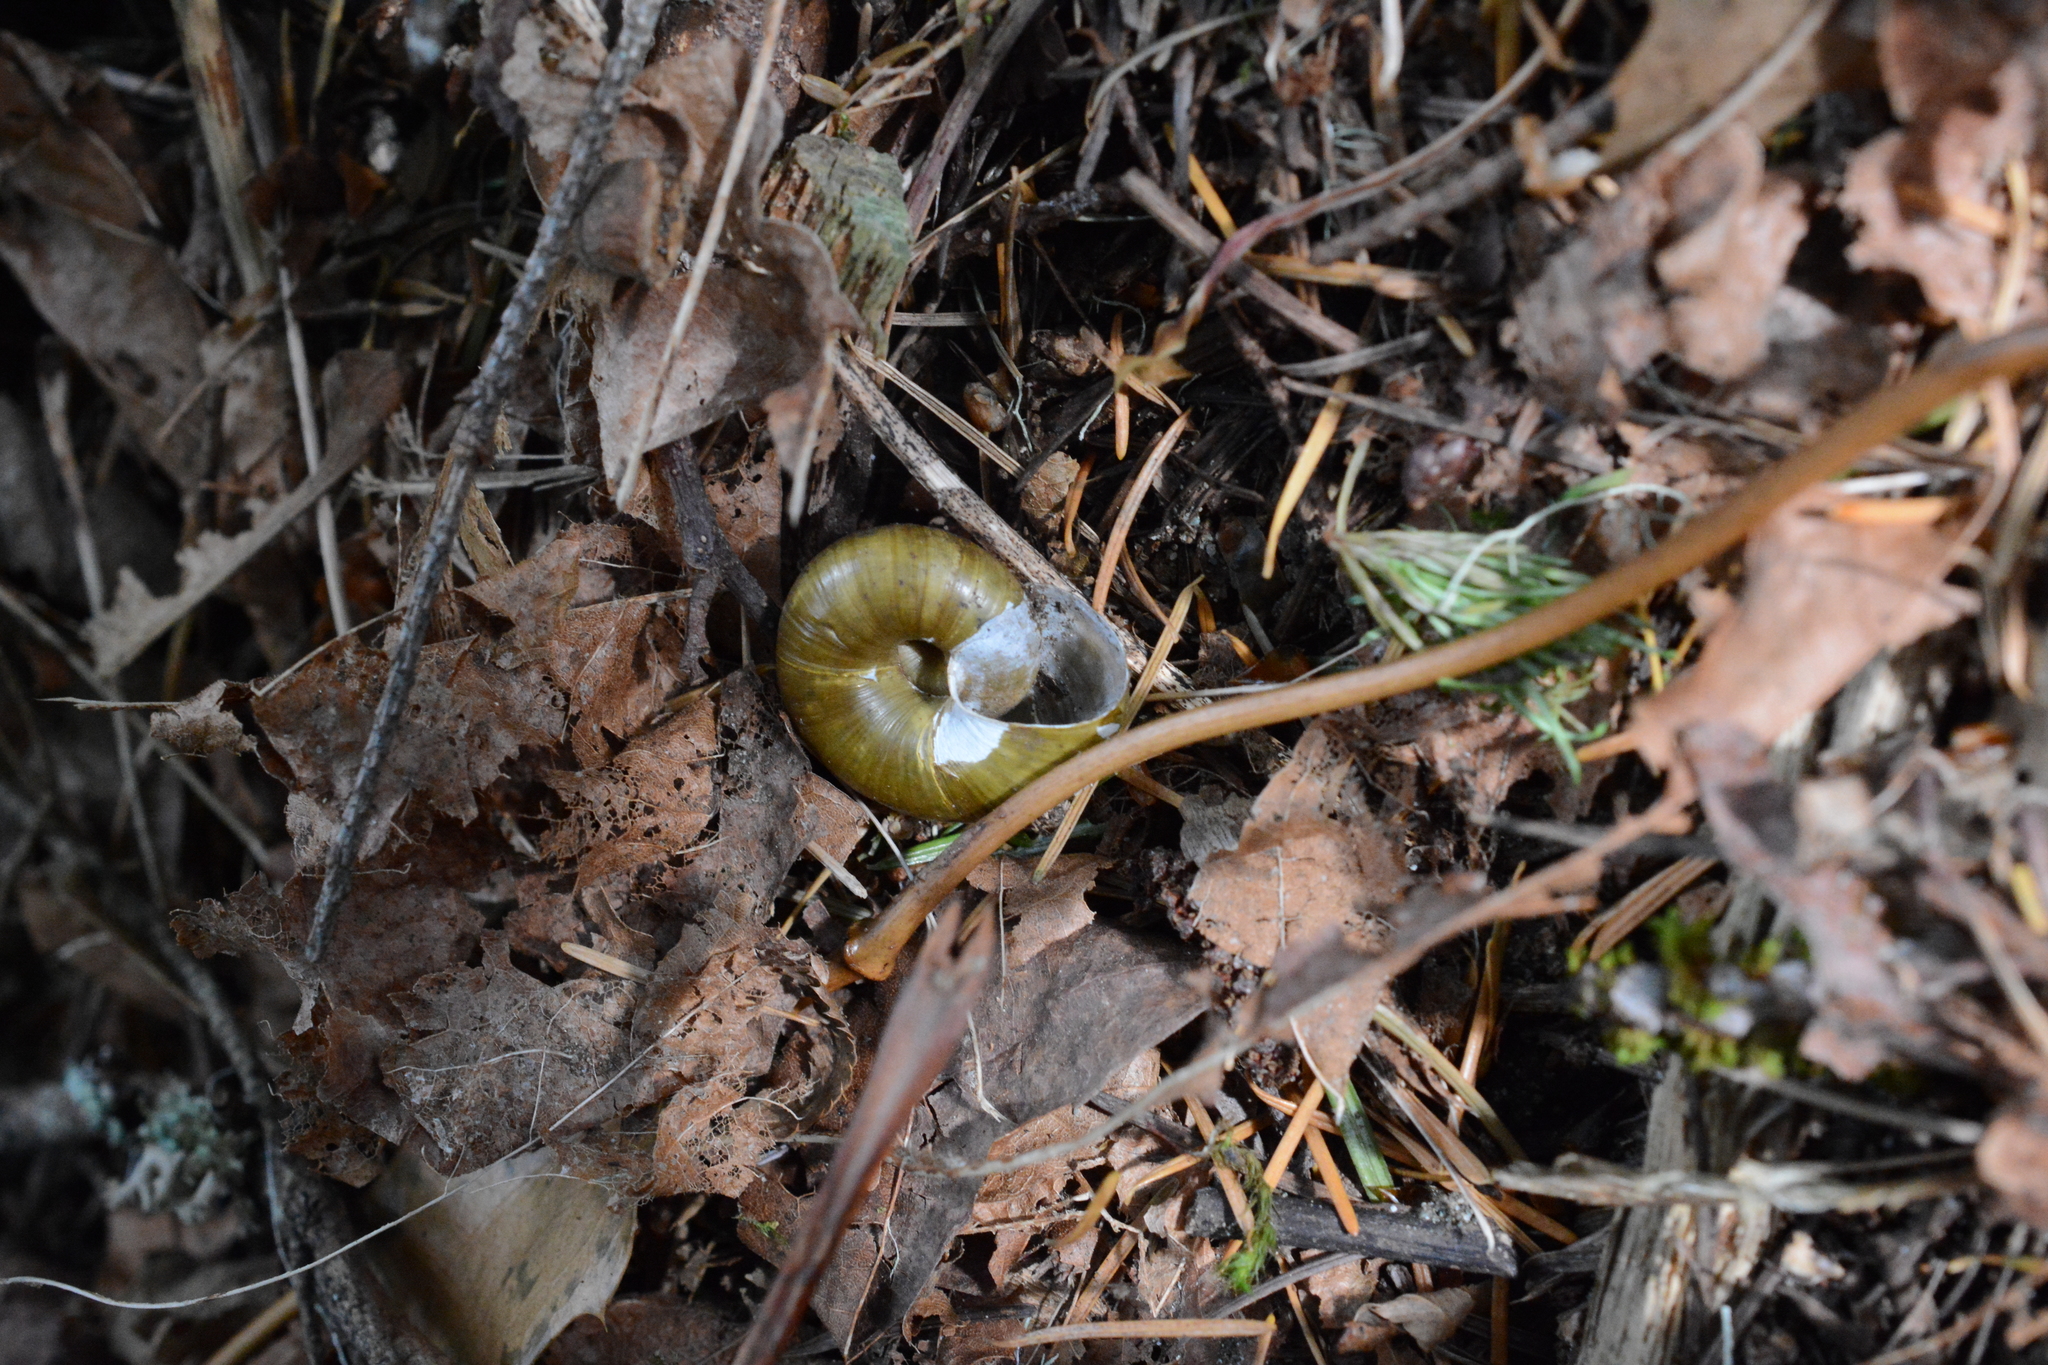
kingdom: Animalia
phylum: Mollusca
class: Gastropoda
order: Stylommatophora
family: Haplotrematidae
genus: Haplotrema
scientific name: Haplotrema vancouverense
